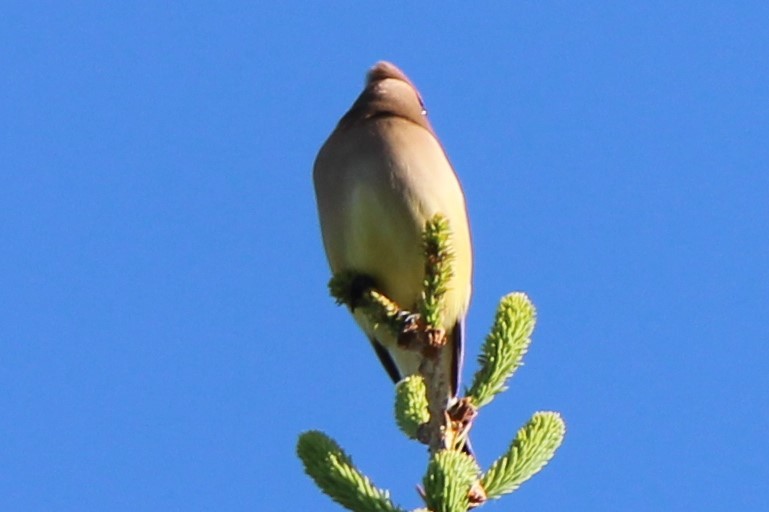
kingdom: Animalia
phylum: Chordata
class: Aves
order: Passeriformes
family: Bombycillidae
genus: Bombycilla
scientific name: Bombycilla cedrorum
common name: Cedar waxwing
